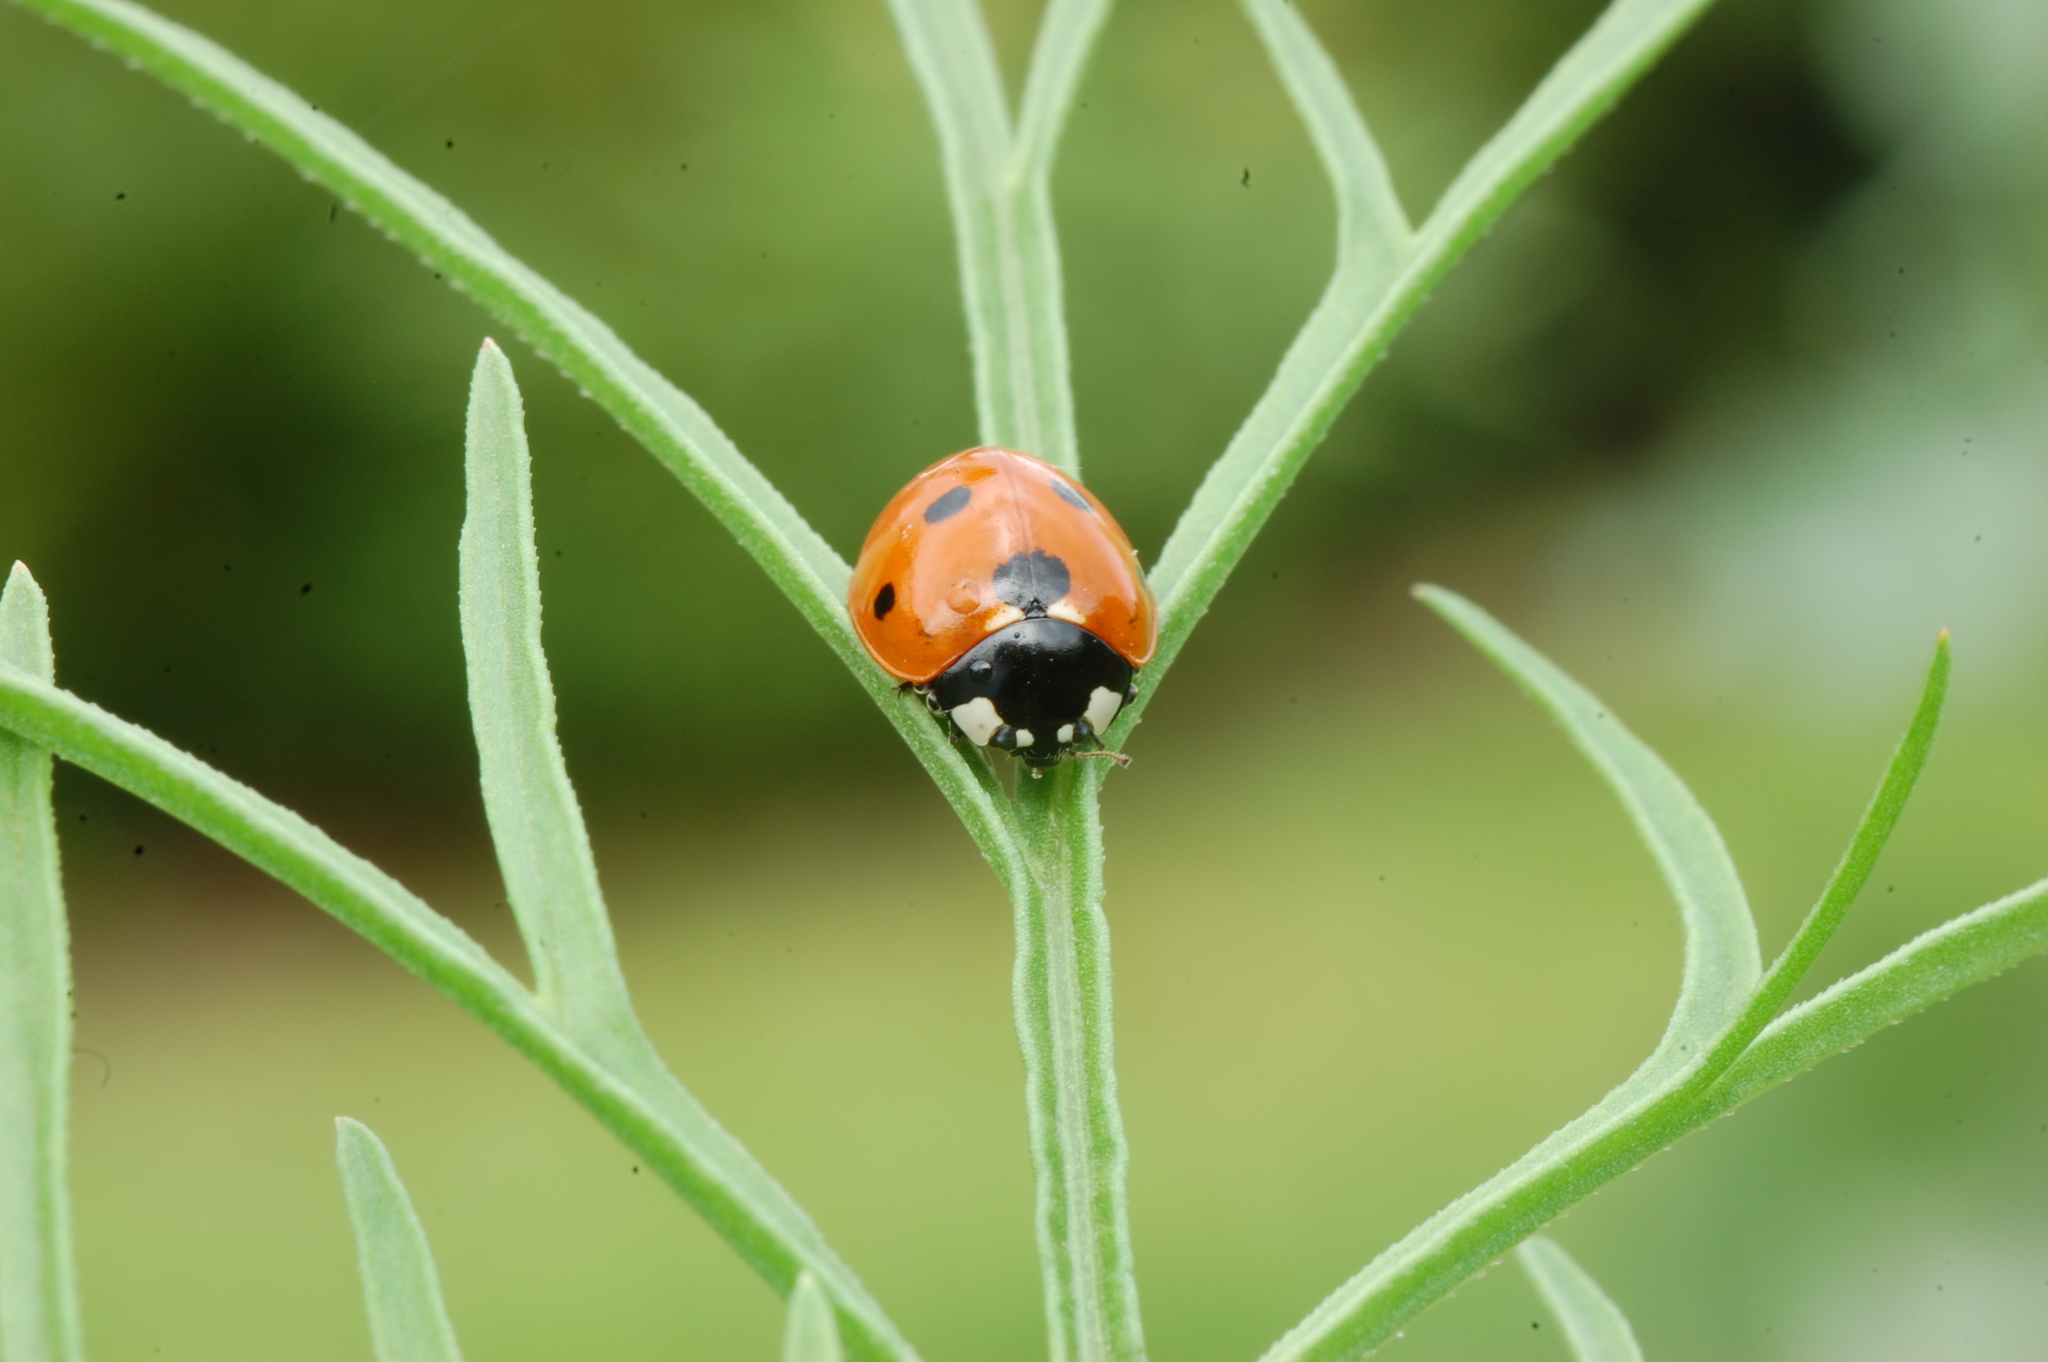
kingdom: Animalia
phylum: Arthropoda
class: Insecta
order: Coleoptera
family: Coccinellidae
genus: Coccinella
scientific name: Coccinella septempunctata
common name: Sevenspotted lady beetle
